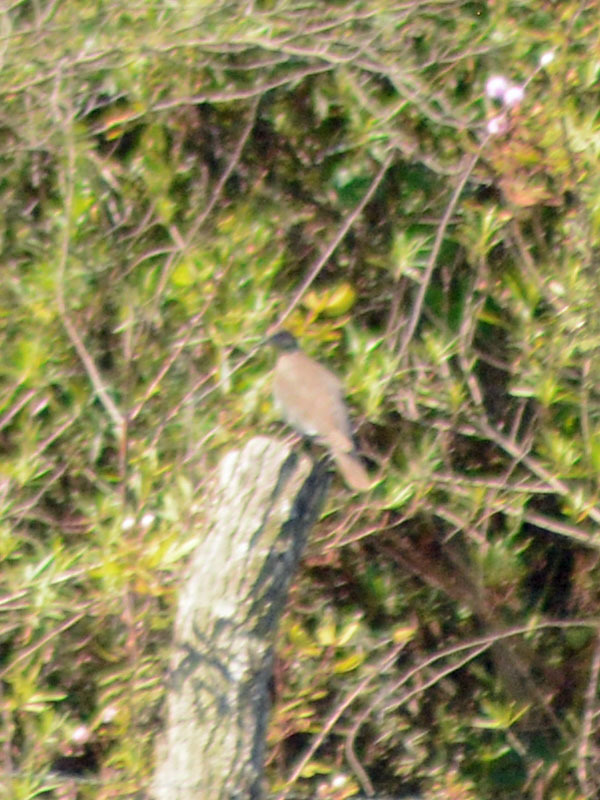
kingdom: Animalia
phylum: Chordata
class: Aves
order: Columbiformes
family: Columbidae
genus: Columbina
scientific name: Columbina passerina
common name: Common ground-dove
